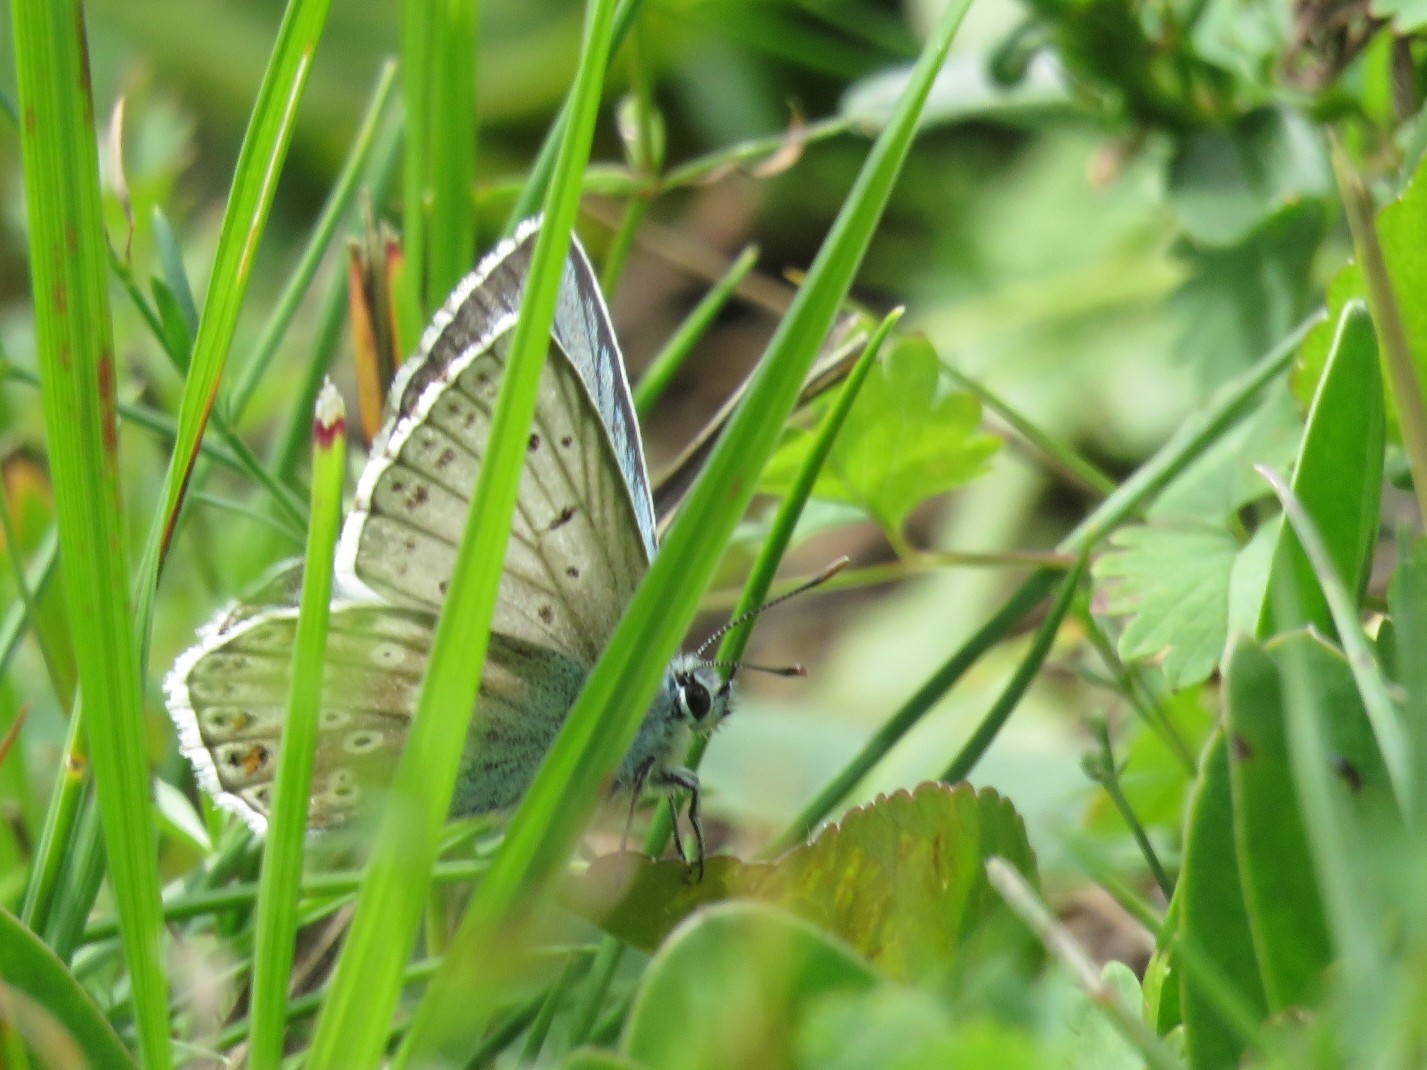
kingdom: Animalia
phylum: Arthropoda
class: Insecta
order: Lepidoptera
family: Lycaenidae
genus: Lysandra
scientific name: Lysandra coridon
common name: Chalkhill blue
